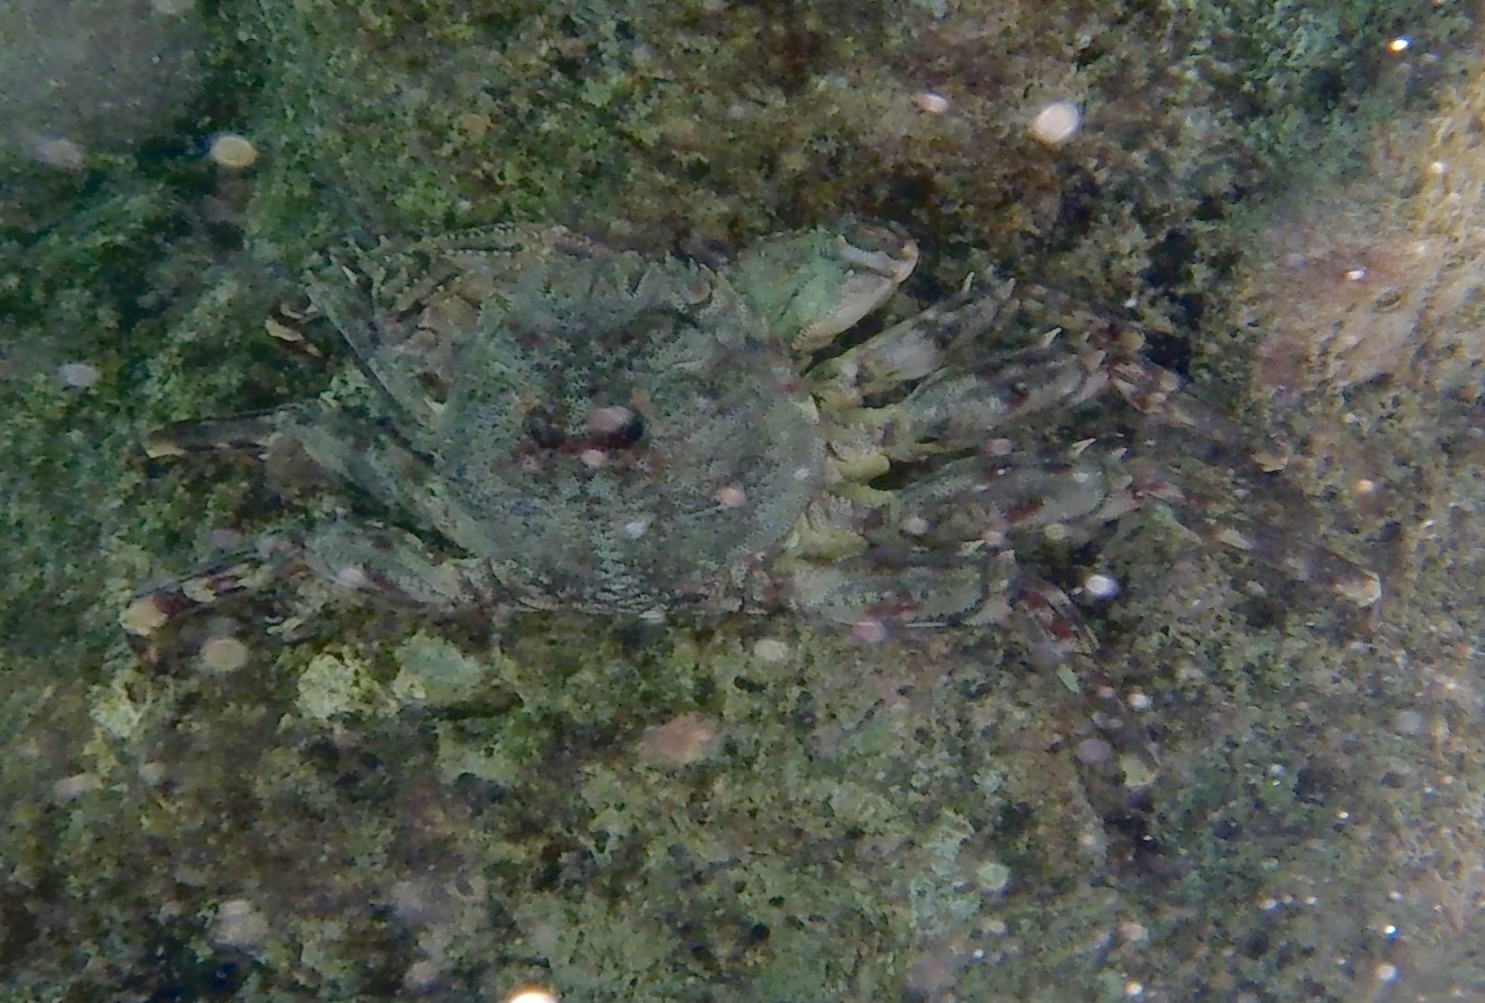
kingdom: Animalia
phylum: Arthropoda
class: Malacostraca
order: Decapoda
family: Plagusiidae
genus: Plagusia
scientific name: Plagusia depressa
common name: Flattened crab
